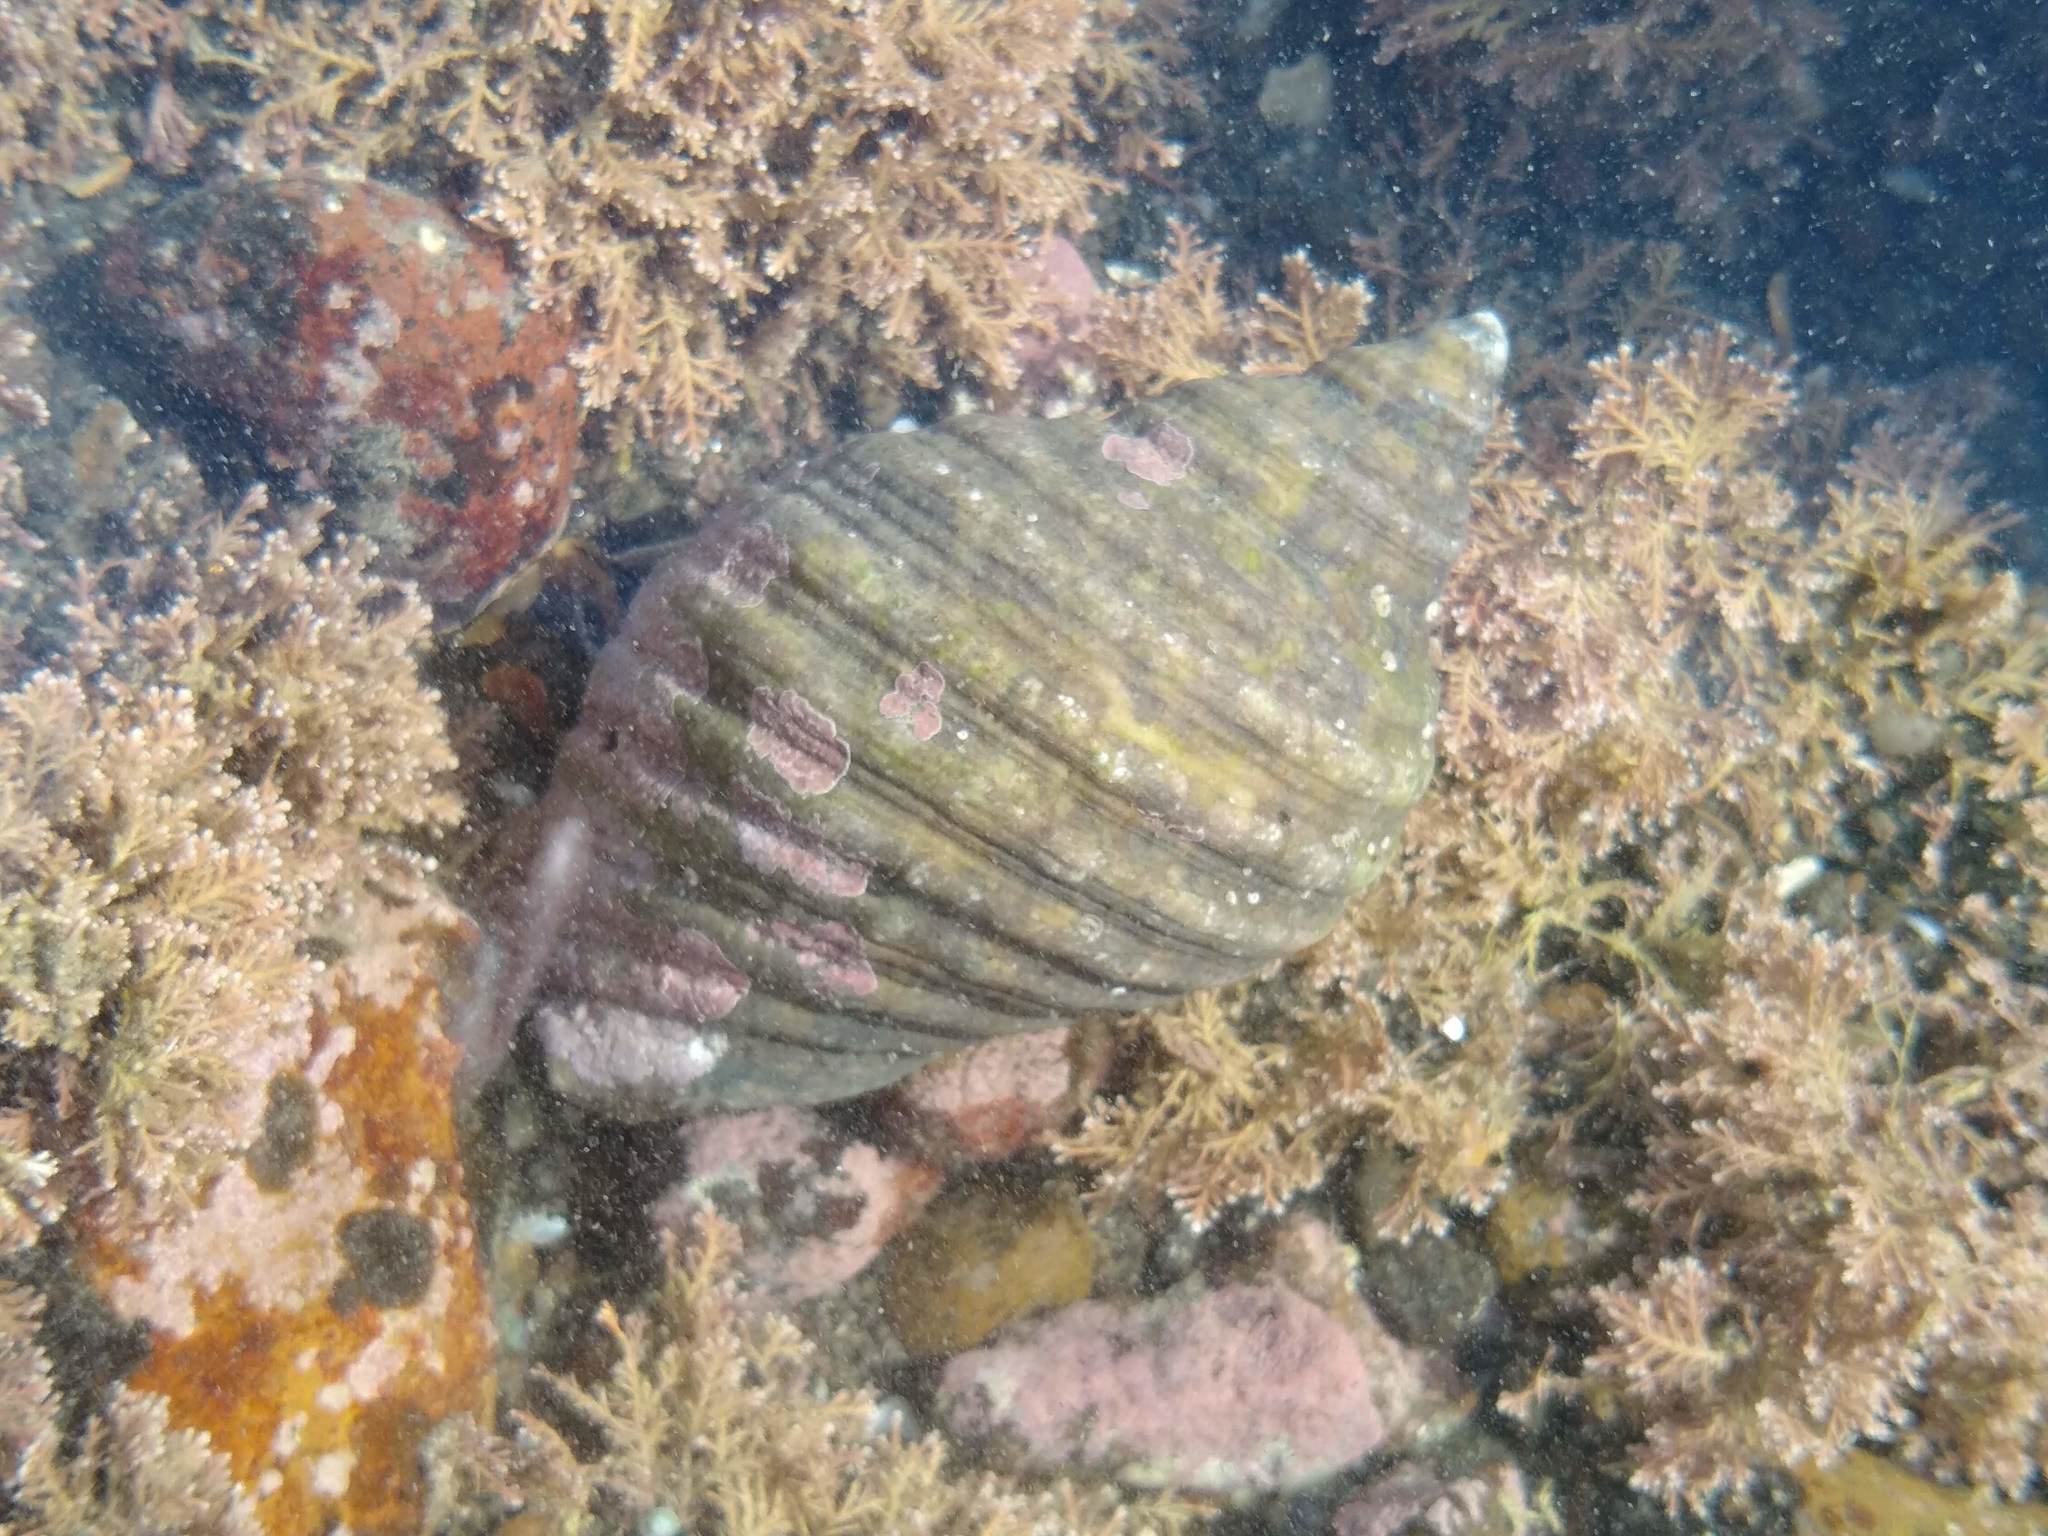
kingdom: Animalia
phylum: Mollusca
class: Gastropoda
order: Neogastropoda
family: Muricidae
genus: Dicathais
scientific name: Dicathais orbita
